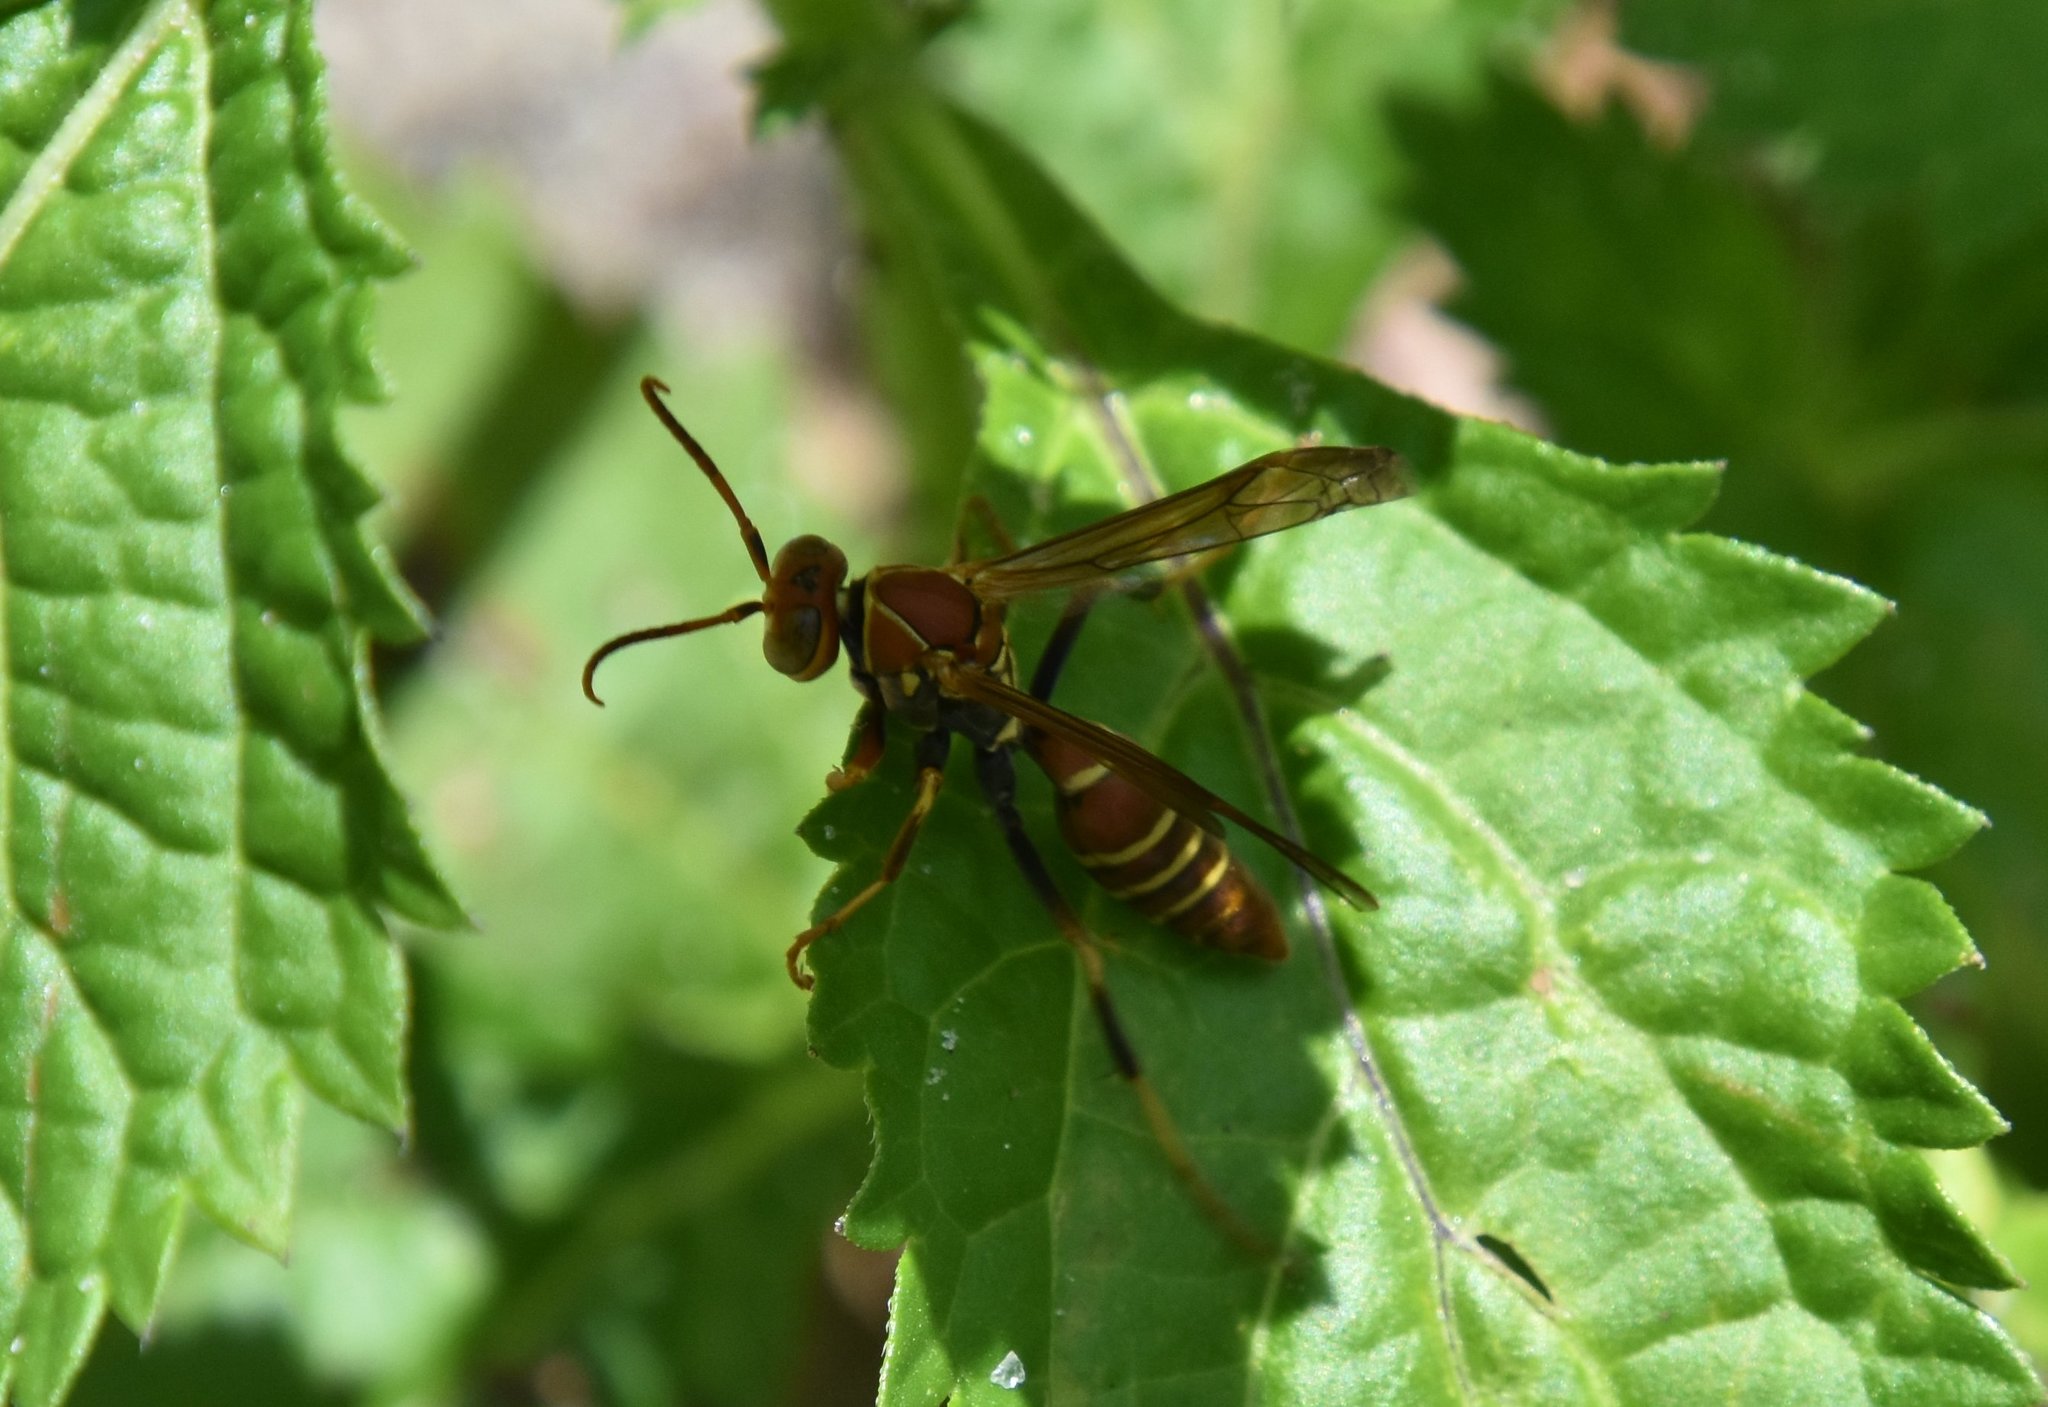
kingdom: Animalia
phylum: Arthropoda
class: Insecta
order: Hymenoptera
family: Eumenidae
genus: Polistes
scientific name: Polistes dorsalis
